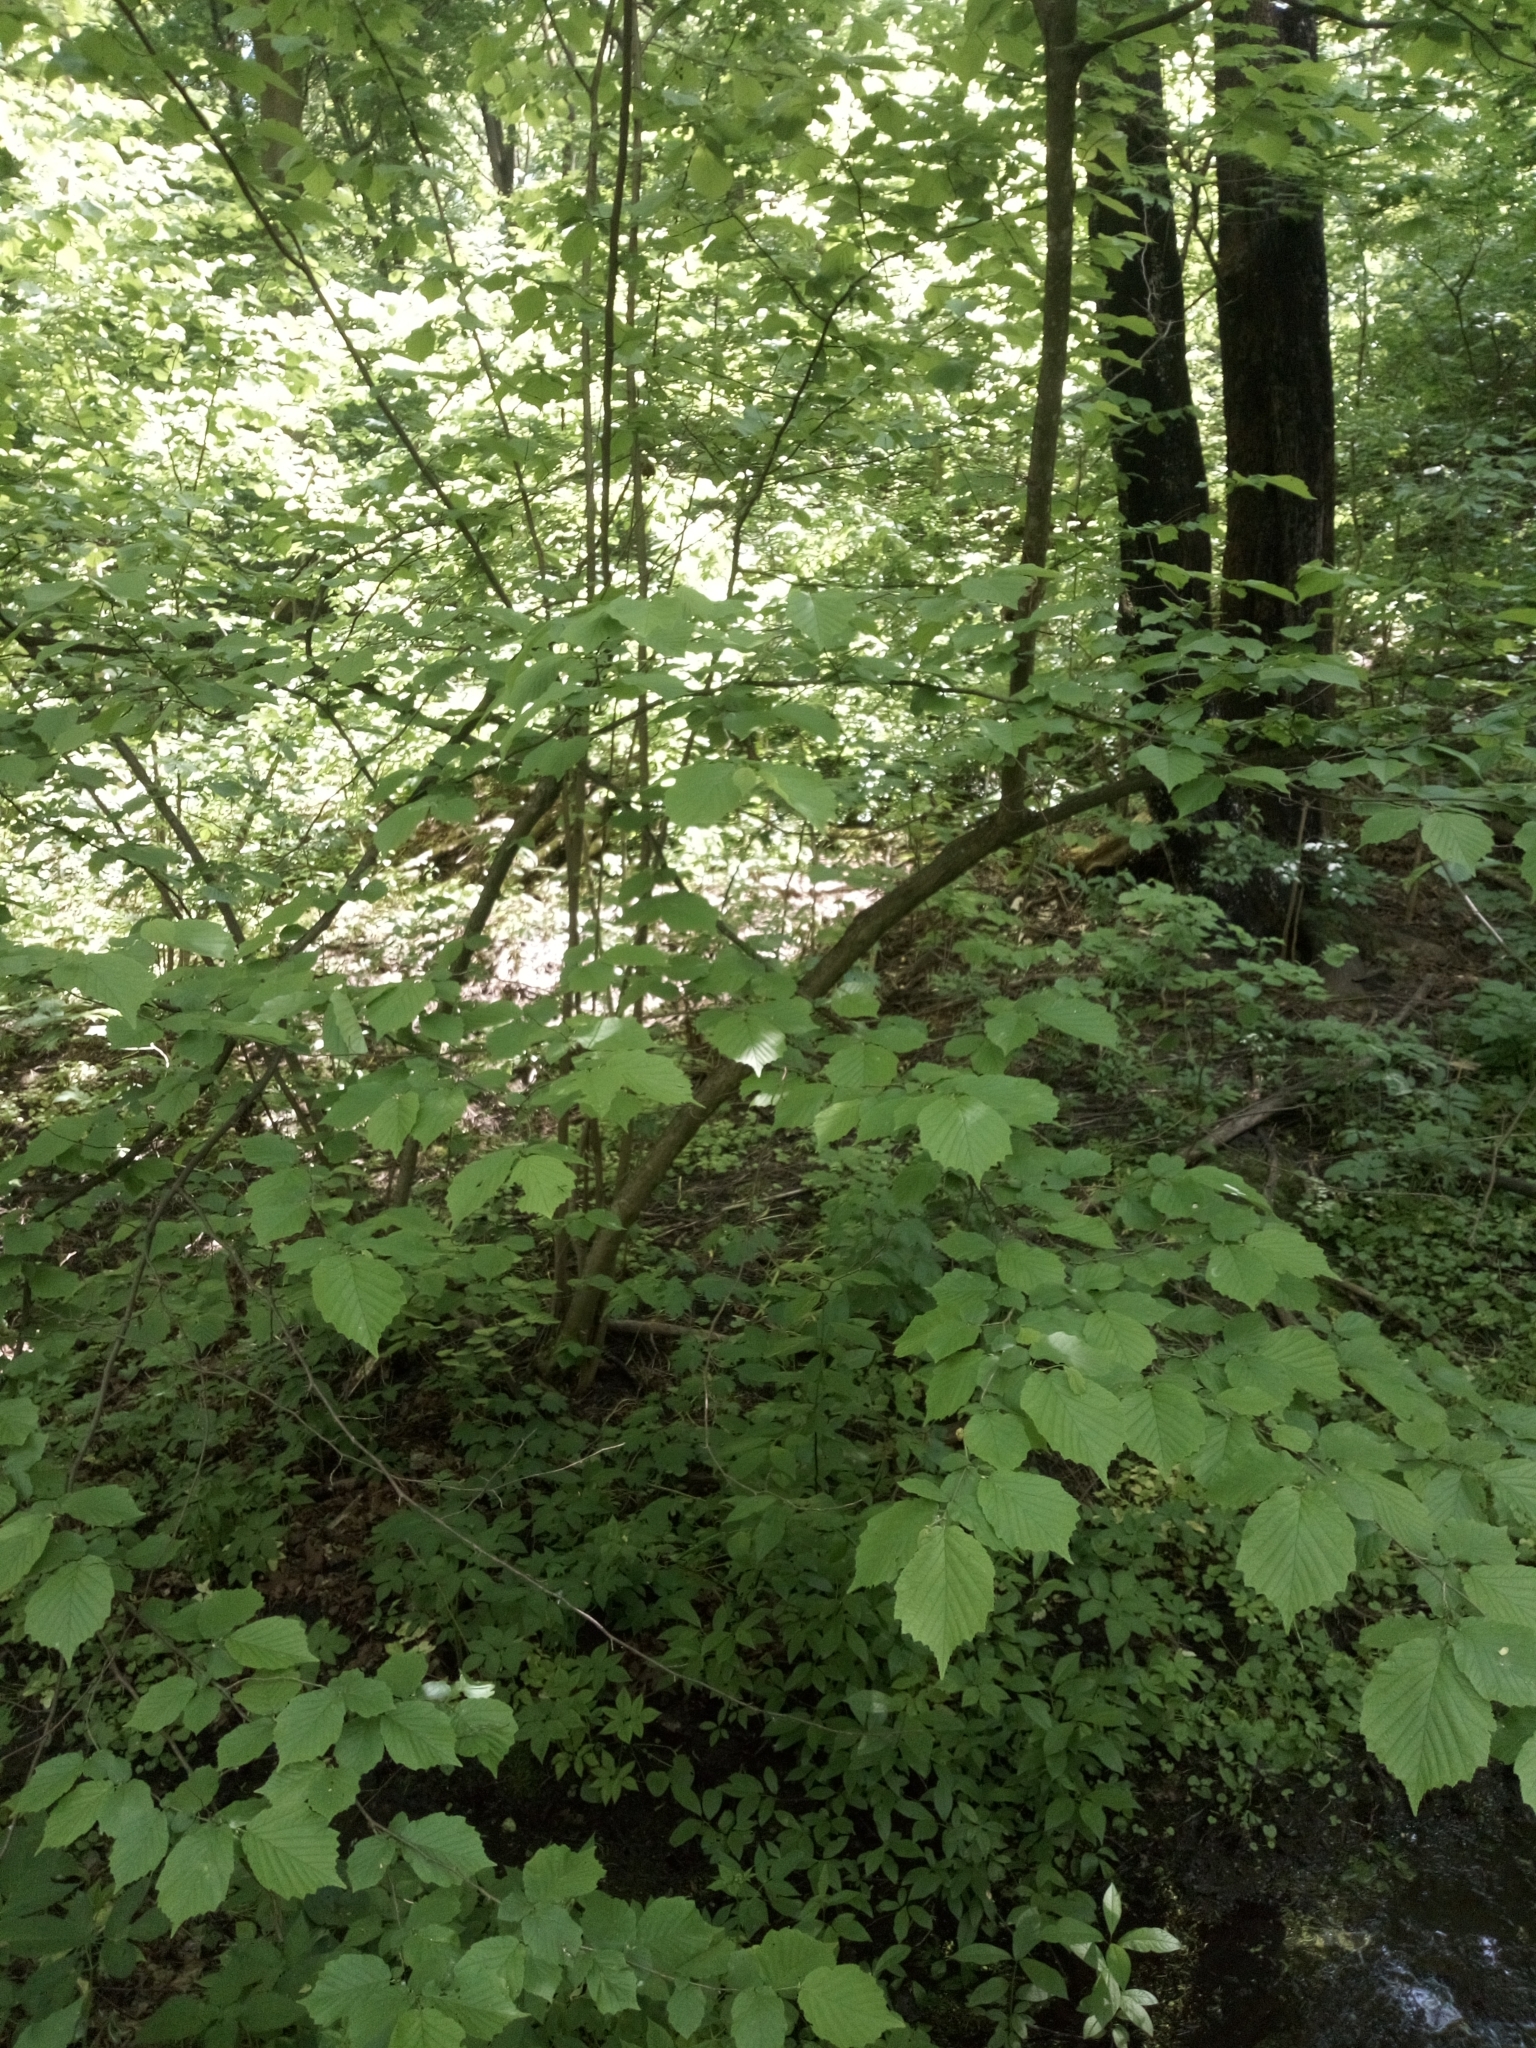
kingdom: Plantae
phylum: Tracheophyta
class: Magnoliopsida
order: Fagales
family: Betulaceae
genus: Corylus
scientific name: Corylus avellana
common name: European hazel
